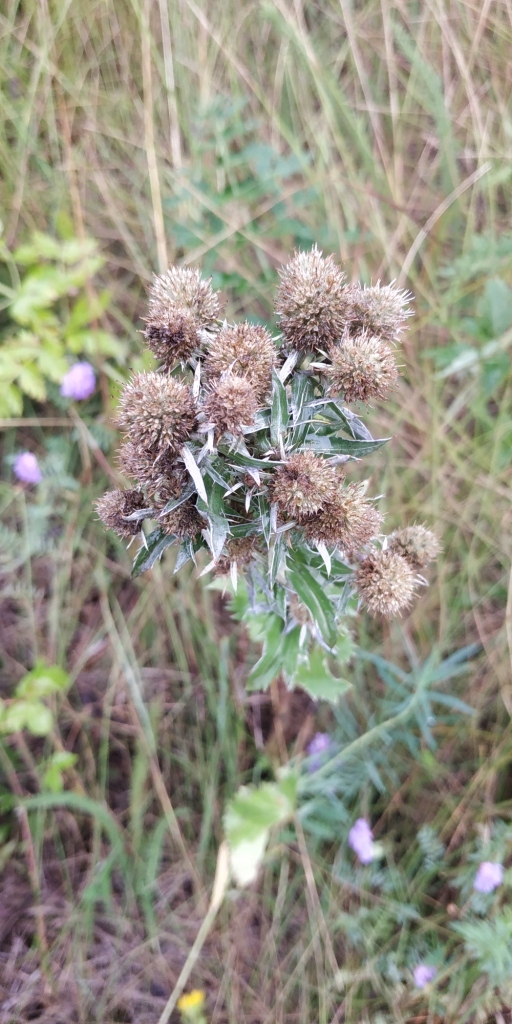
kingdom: Plantae
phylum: Tracheophyta
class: Magnoliopsida
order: Apiales
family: Apiaceae
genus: Eryngium
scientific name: Eryngium planum
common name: Blue eryngo
